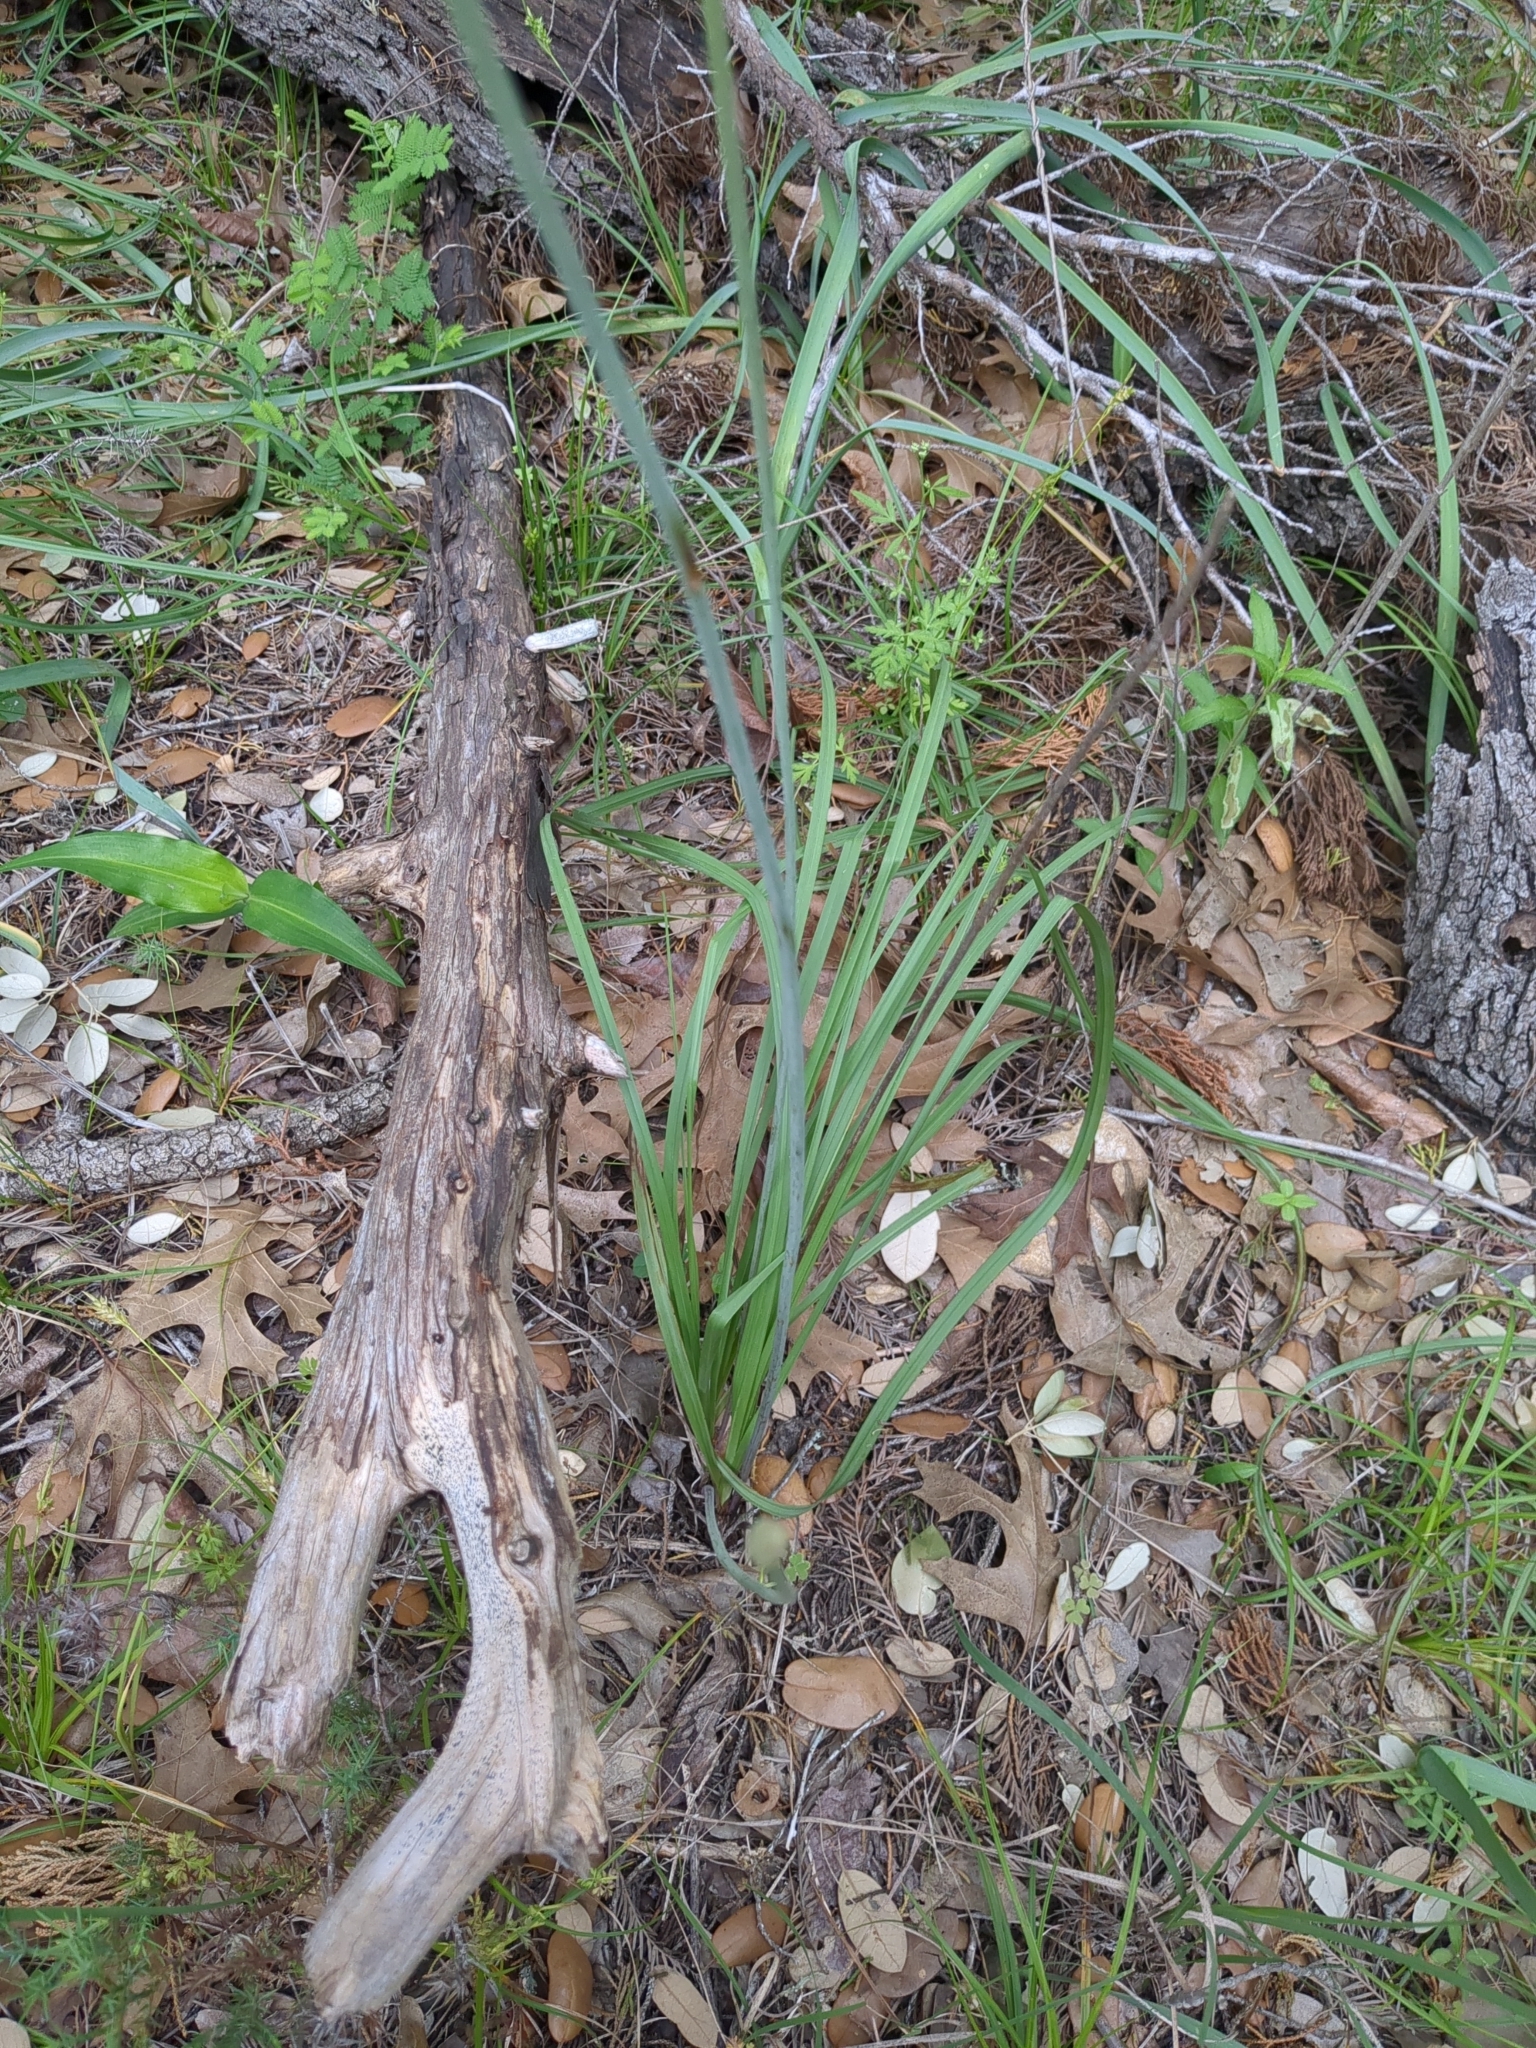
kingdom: Plantae
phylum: Tracheophyta
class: Liliopsida
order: Liliales
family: Melanthiaceae
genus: Schoenocaulon
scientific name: Schoenocaulon texanum
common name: Texas feather-shank
